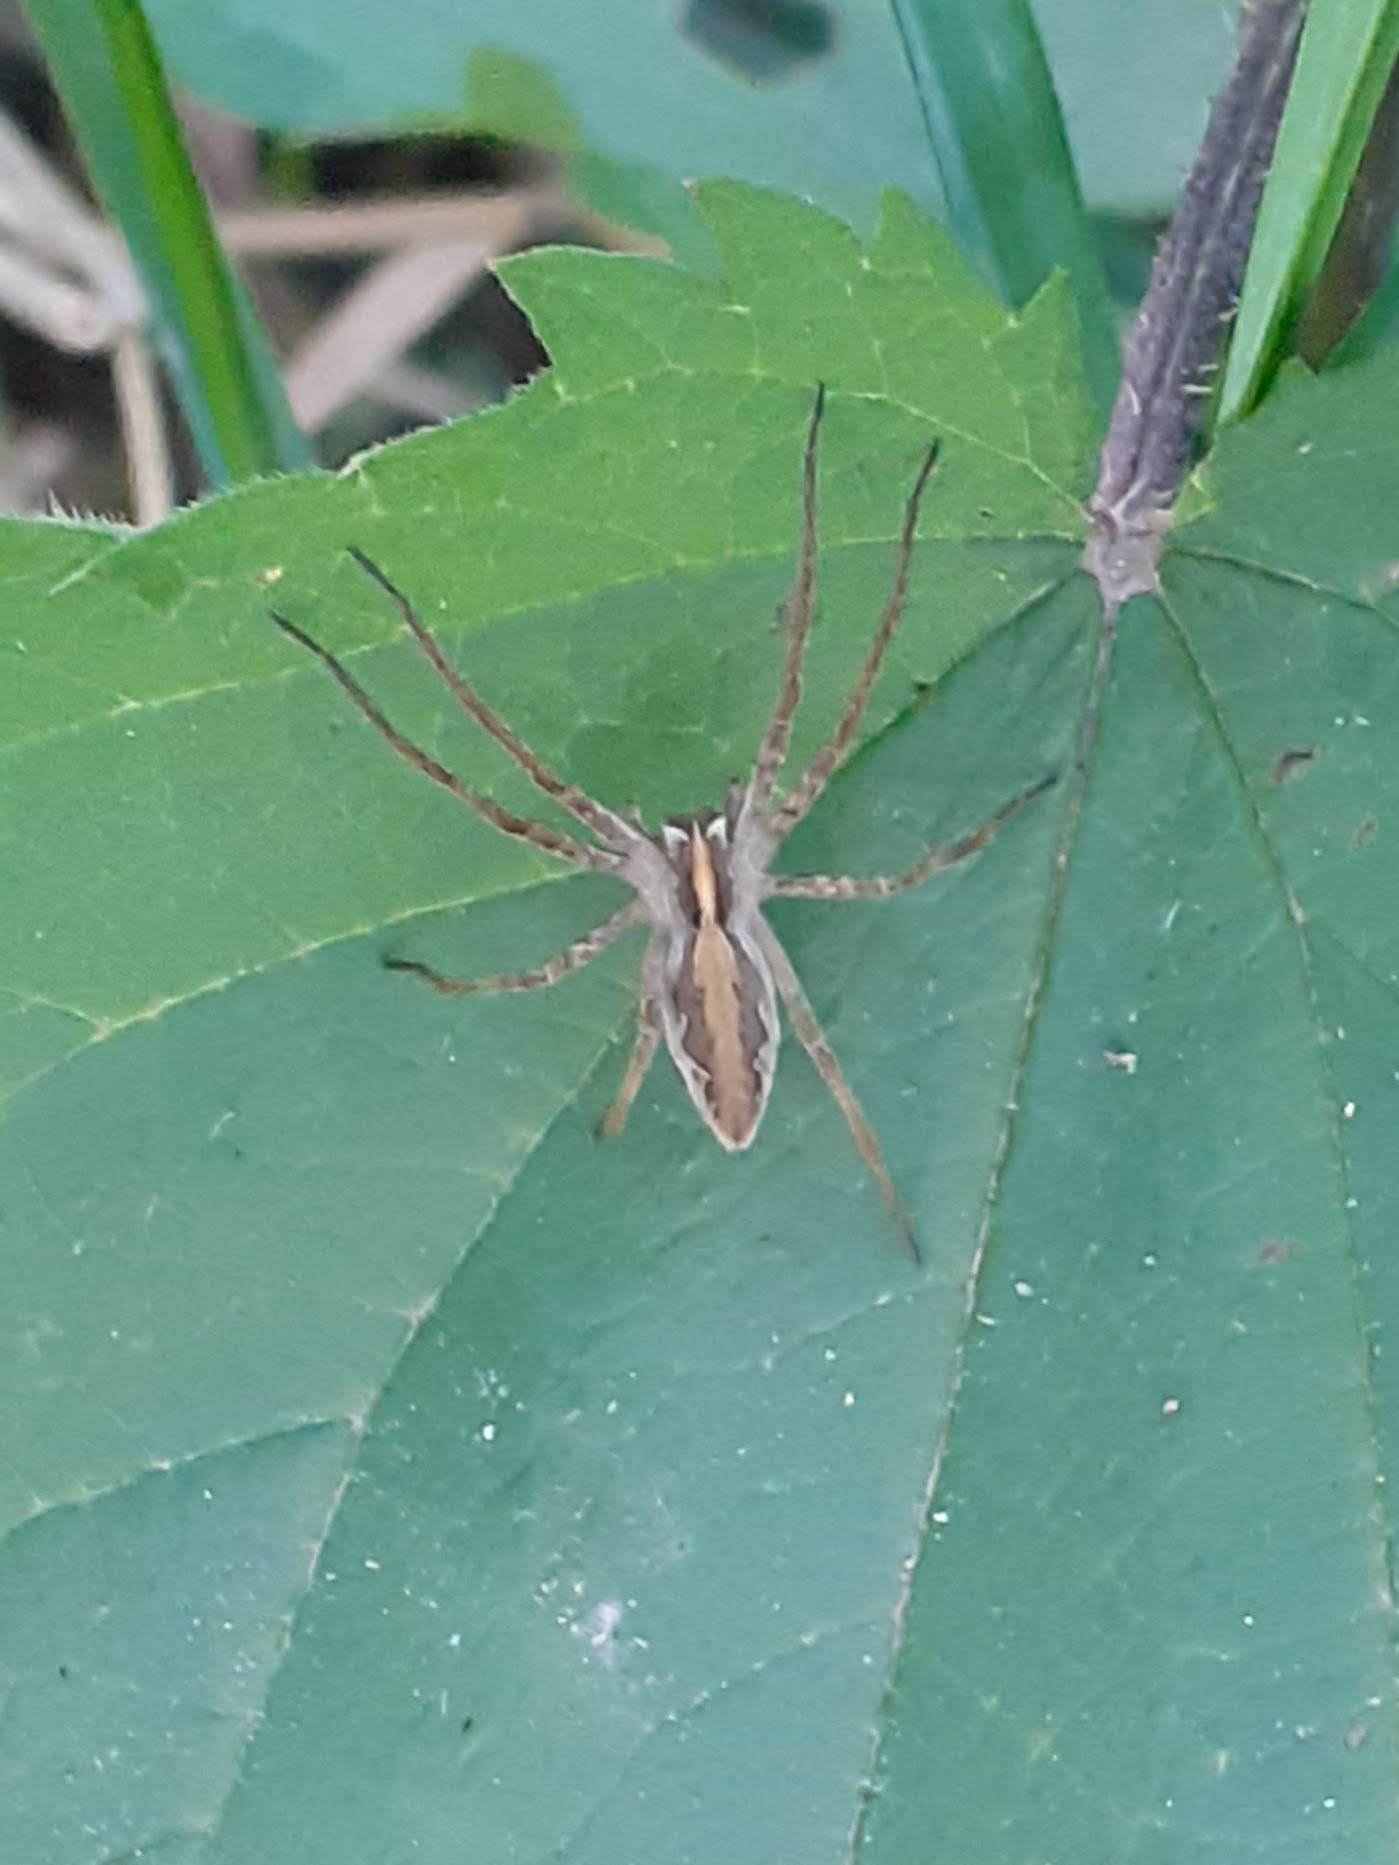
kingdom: Animalia
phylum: Arthropoda
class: Arachnida
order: Araneae
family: Pisauridae
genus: Pisaura
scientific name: Pisaura mirabilis
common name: Tent spider
